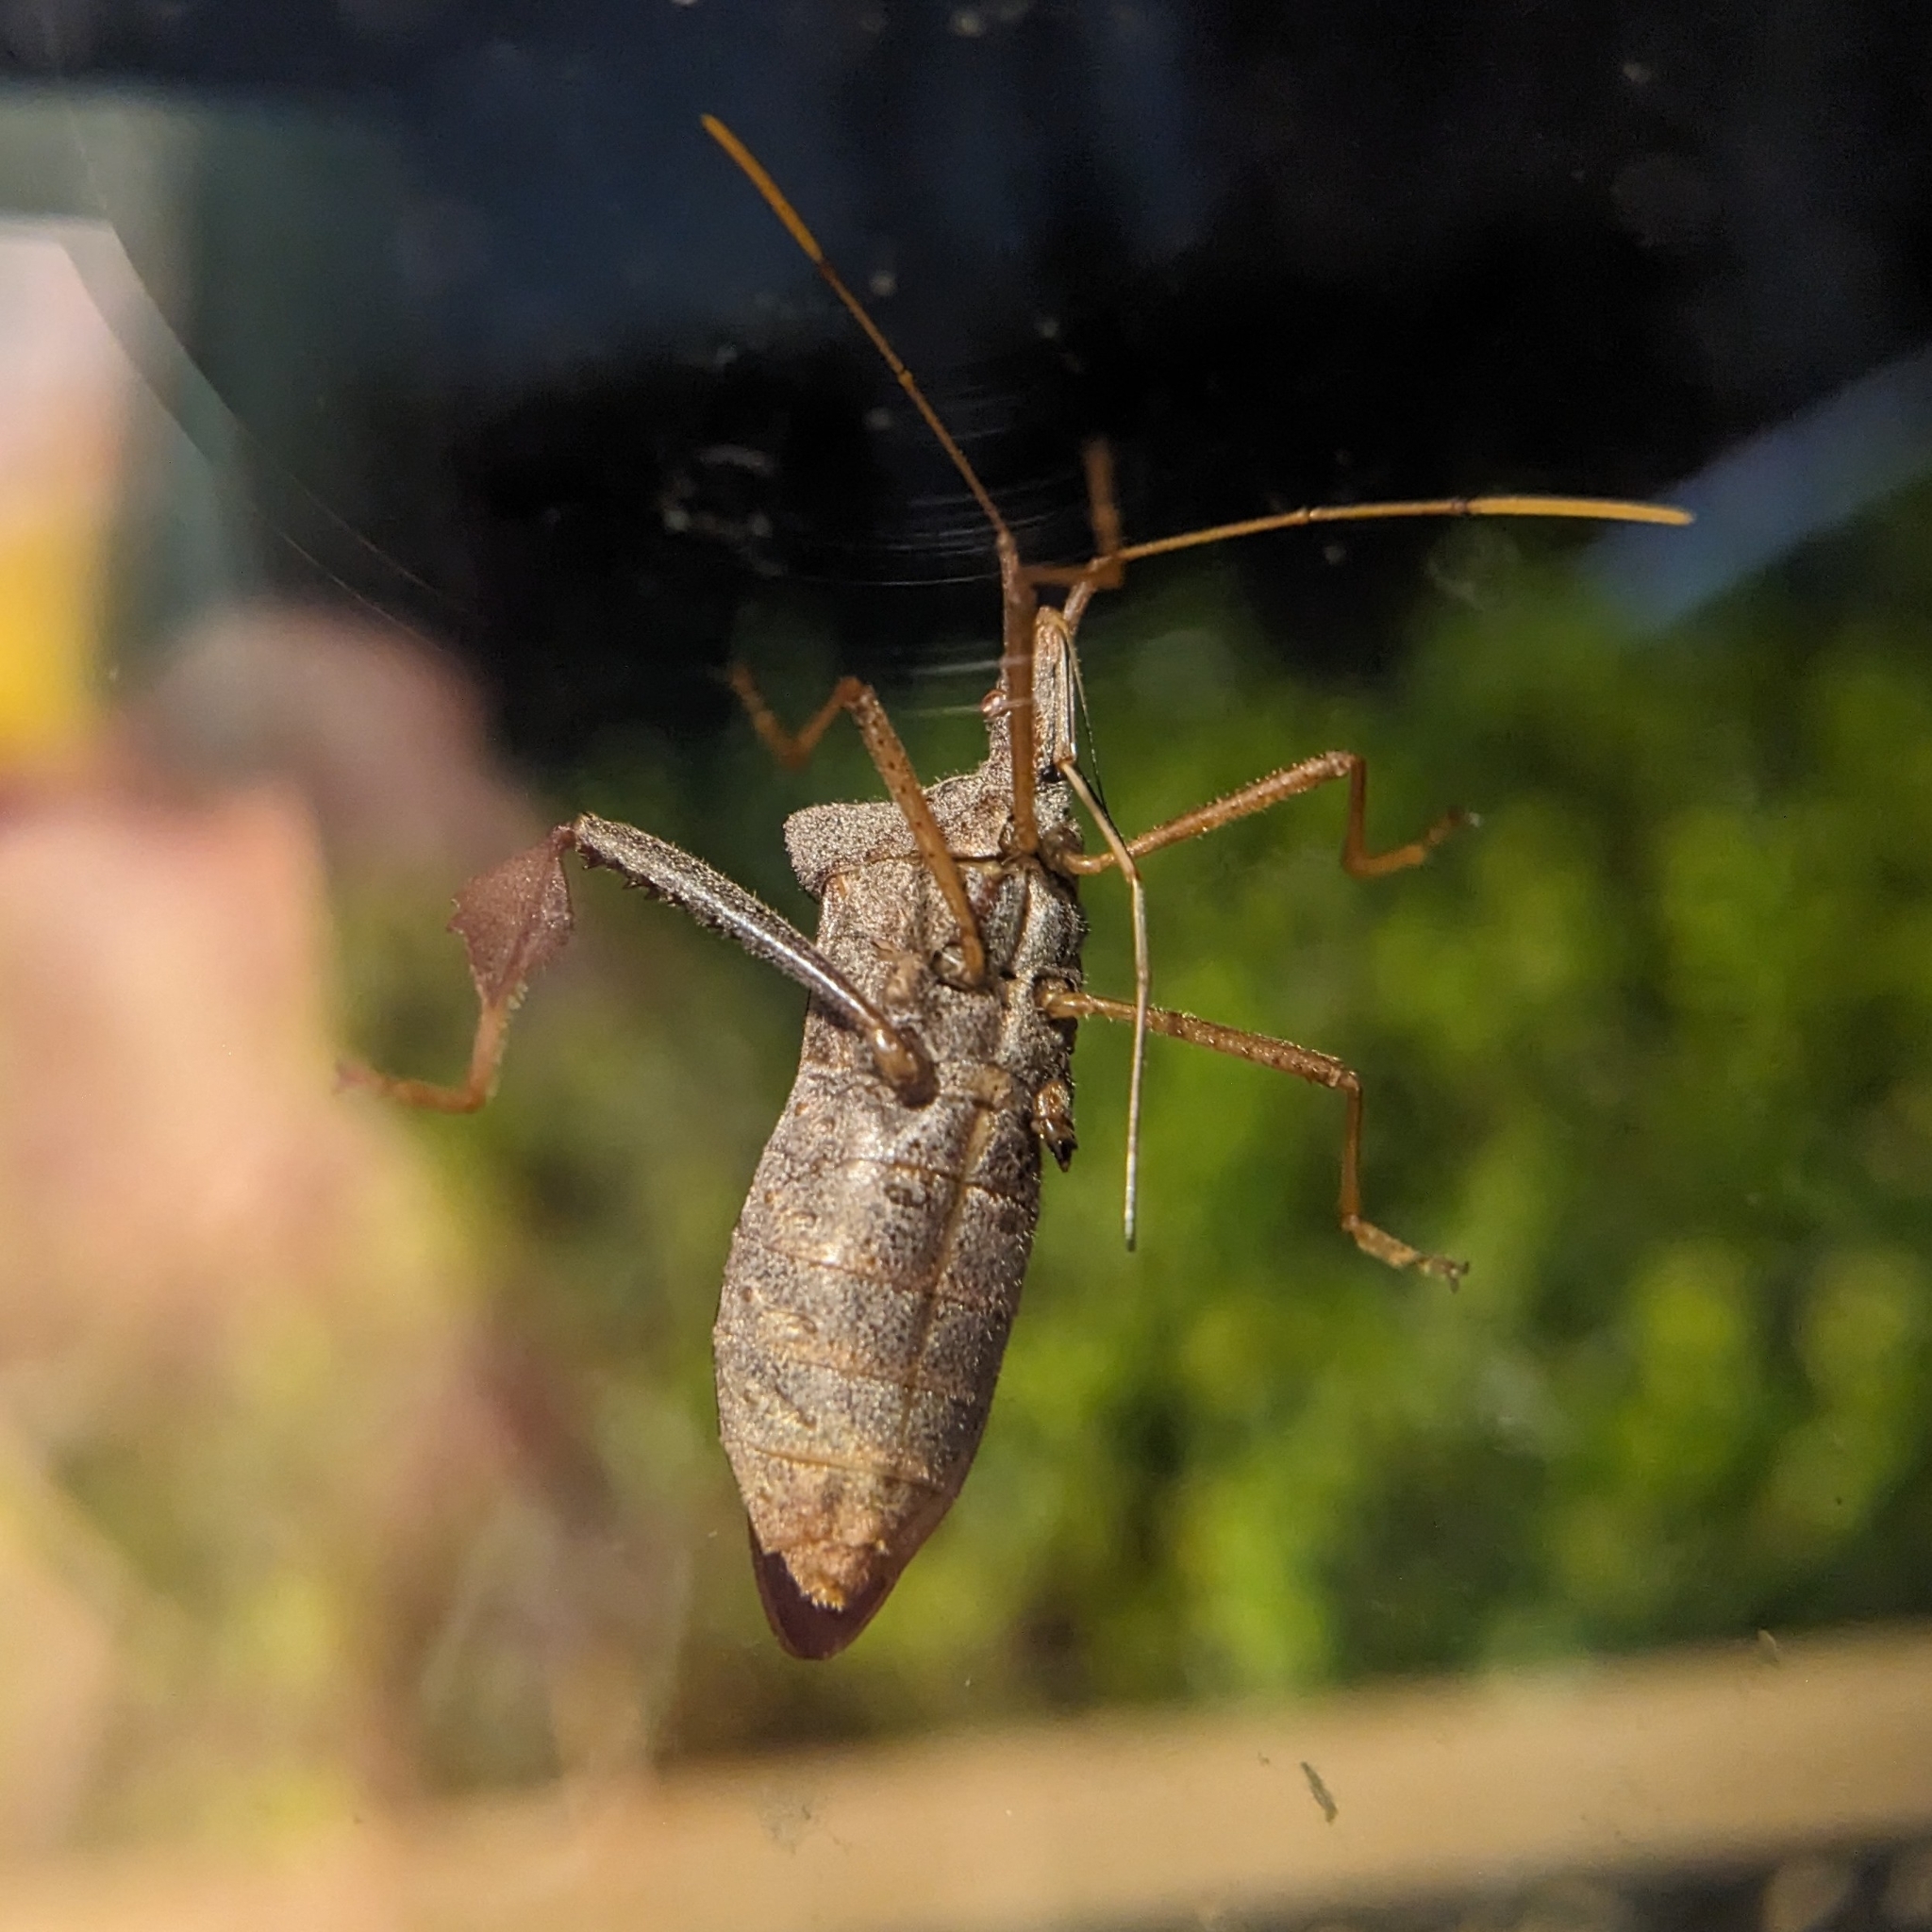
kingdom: Animalia
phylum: Arthropoda
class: Insecta
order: Hemiptera
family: Coreidae
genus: Leptoglossus
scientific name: Leptoglossus fulvicornis
